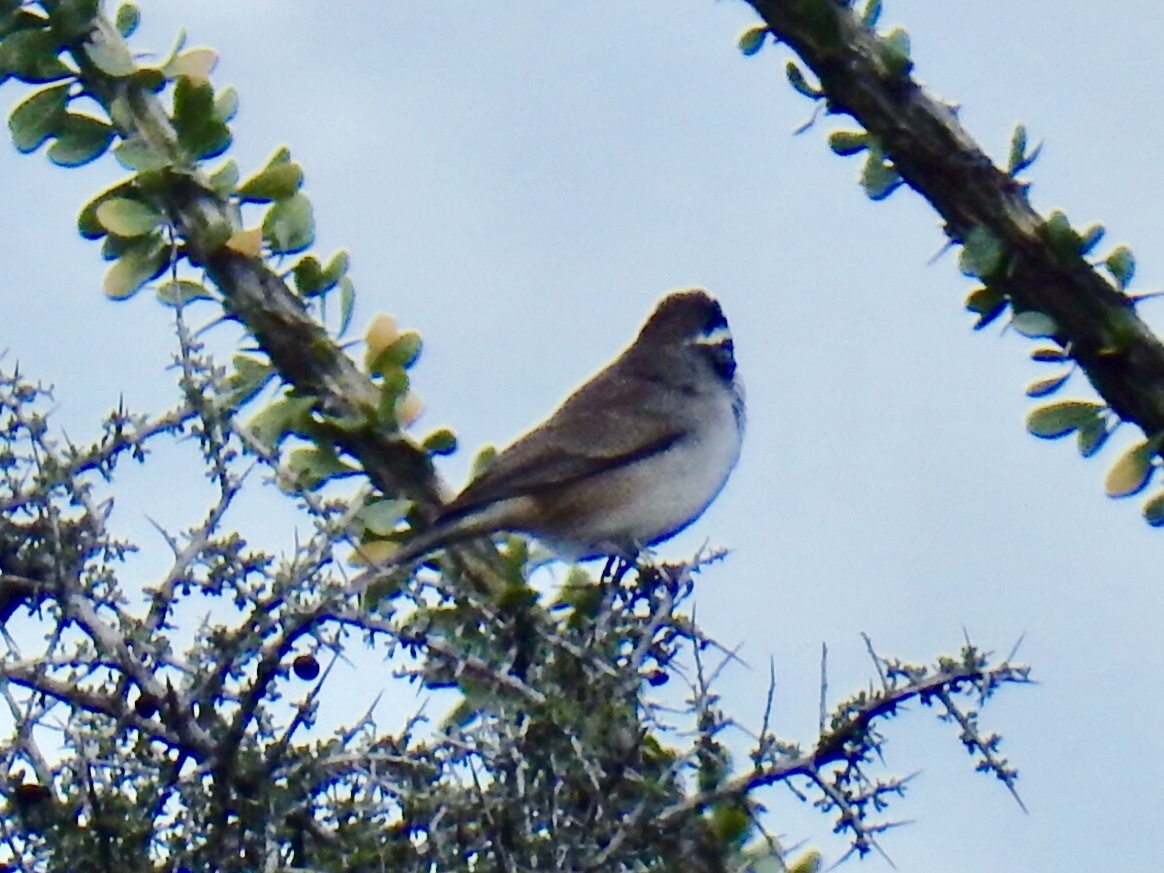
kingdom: Animalia
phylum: Chordata
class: Aves
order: Passeriformes
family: Passerellidae
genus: Amphispiza
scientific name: Amphispiza bilineata
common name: Black-throated sparrow
